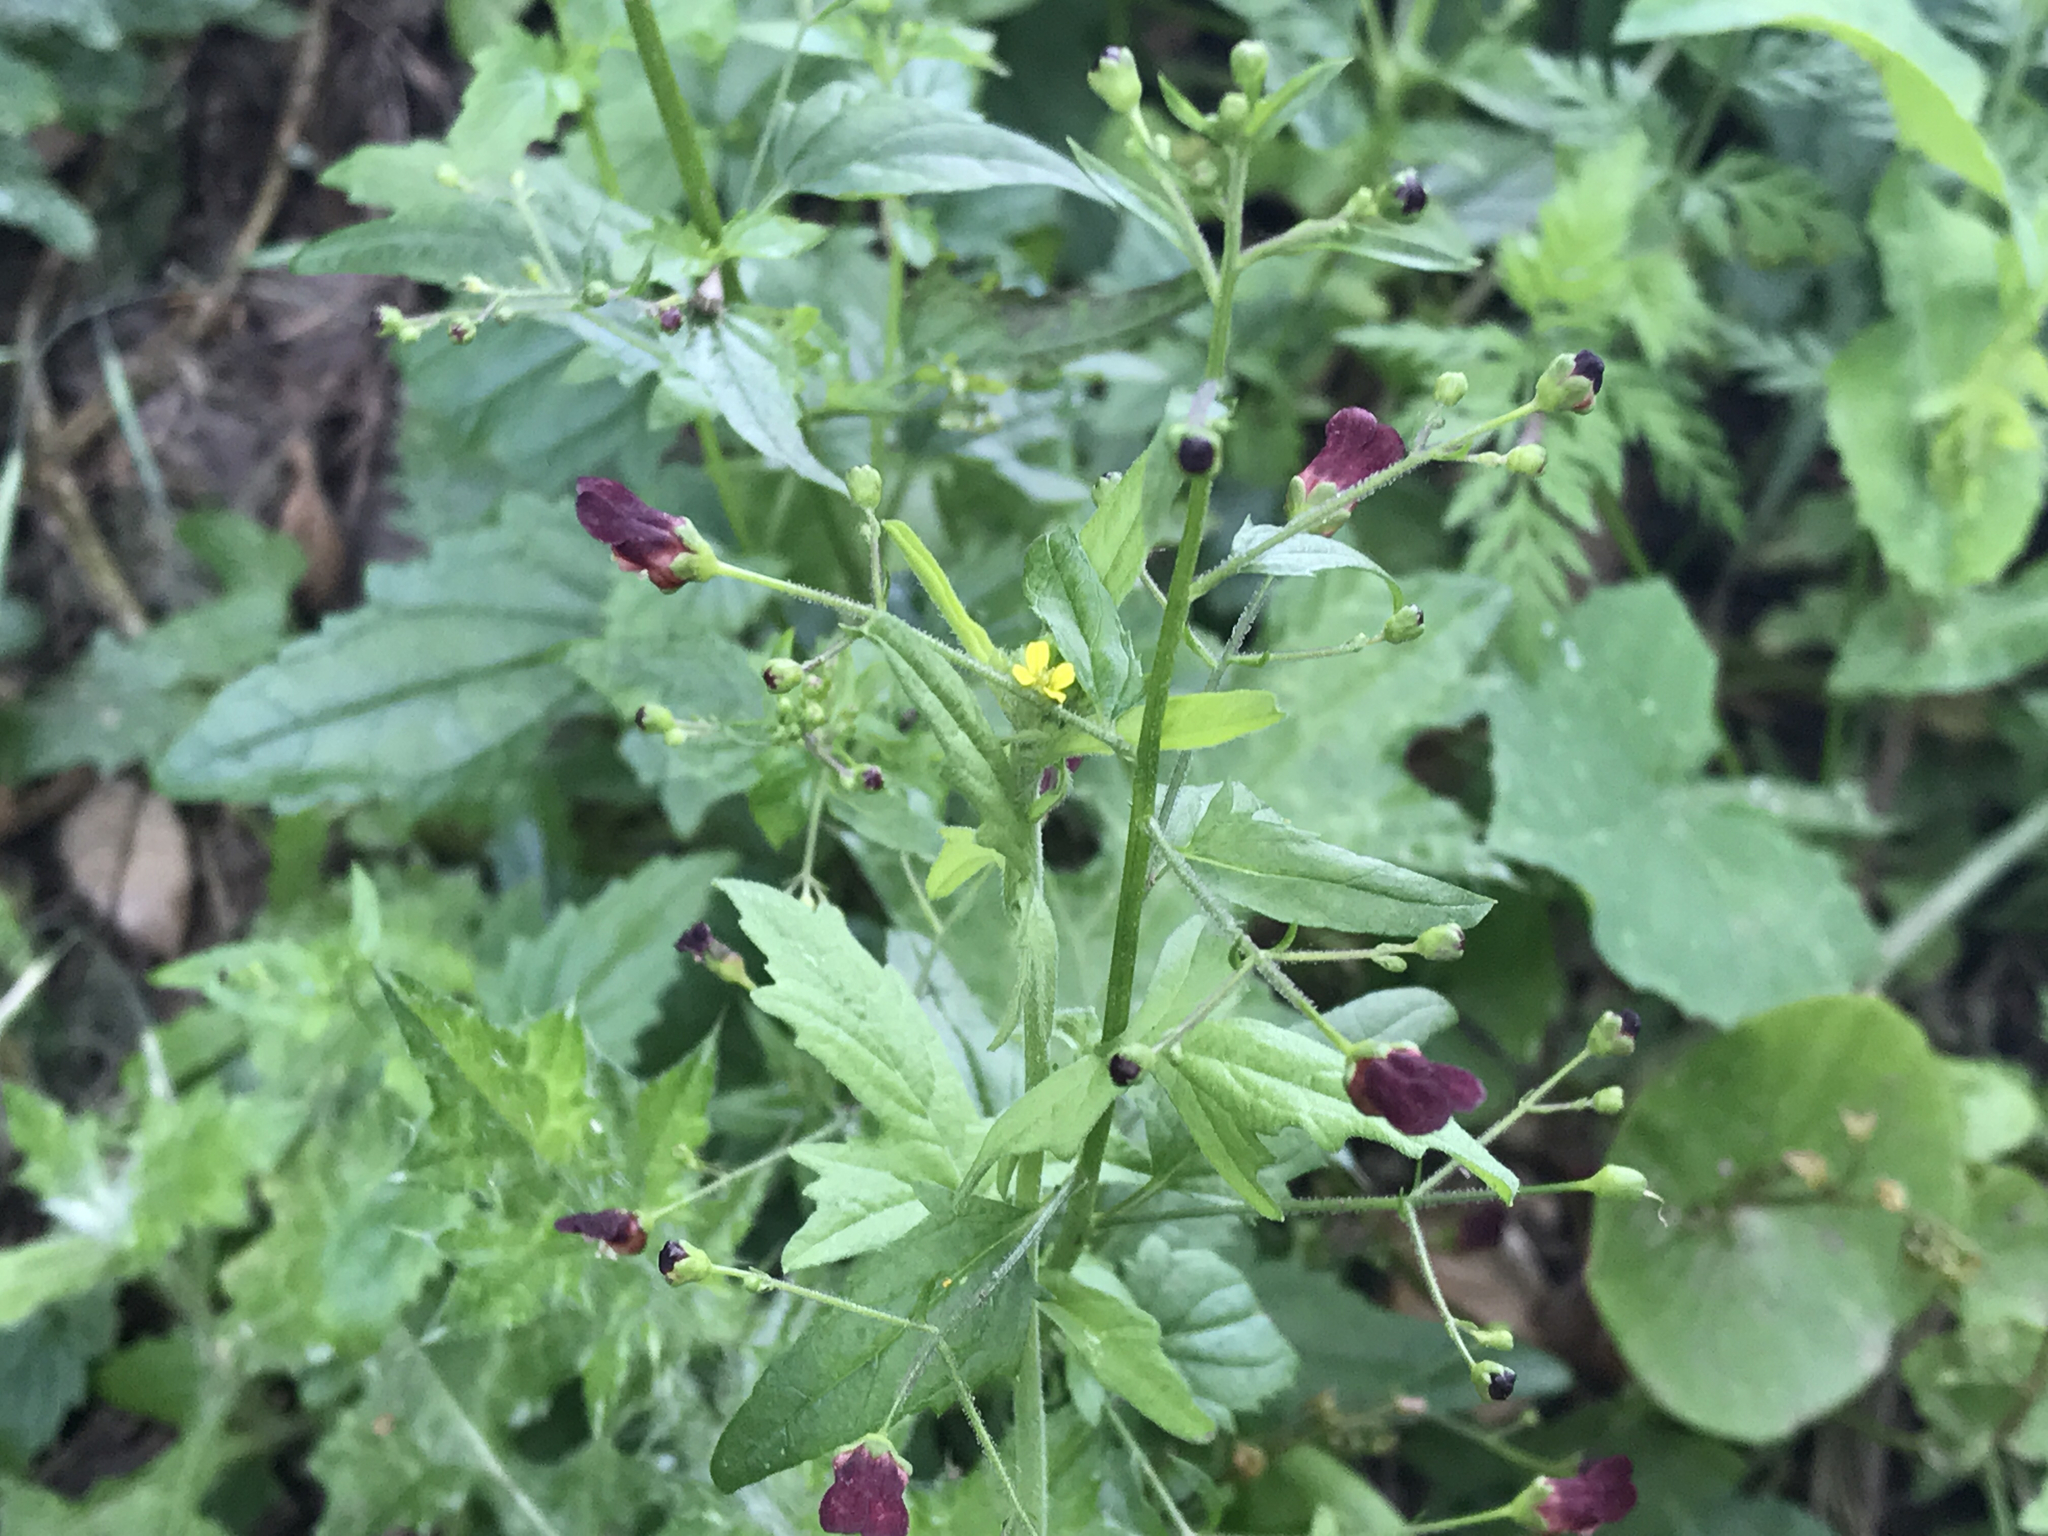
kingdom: Plantae
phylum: Tracheophyta
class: Magnoliopsida
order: Lamiales
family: Scrophulariaceae
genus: Scrophularia
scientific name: Scrophularia californica
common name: California figwort
